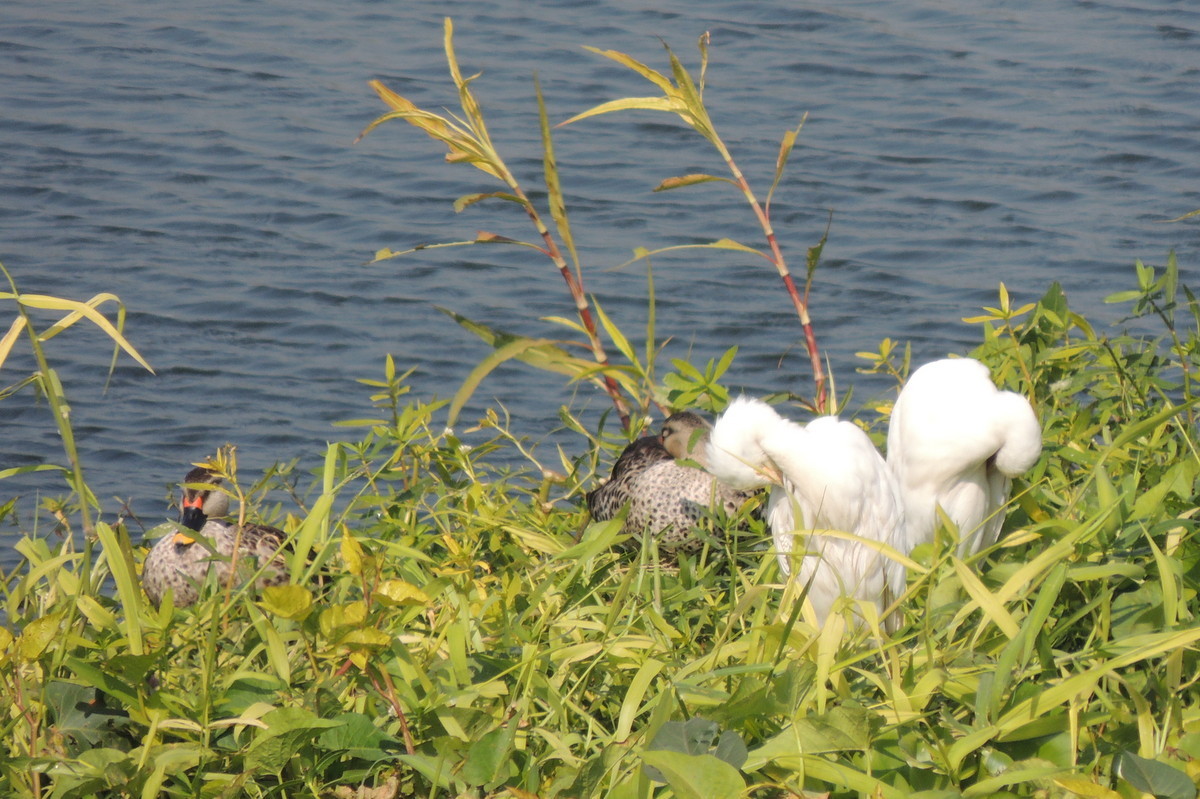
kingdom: Animalia
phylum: Chordata
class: Aves
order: Pelecaniformes
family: Ardeidae
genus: Bubulcus
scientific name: Bubulcus coromandus
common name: Eastern cattle egret
